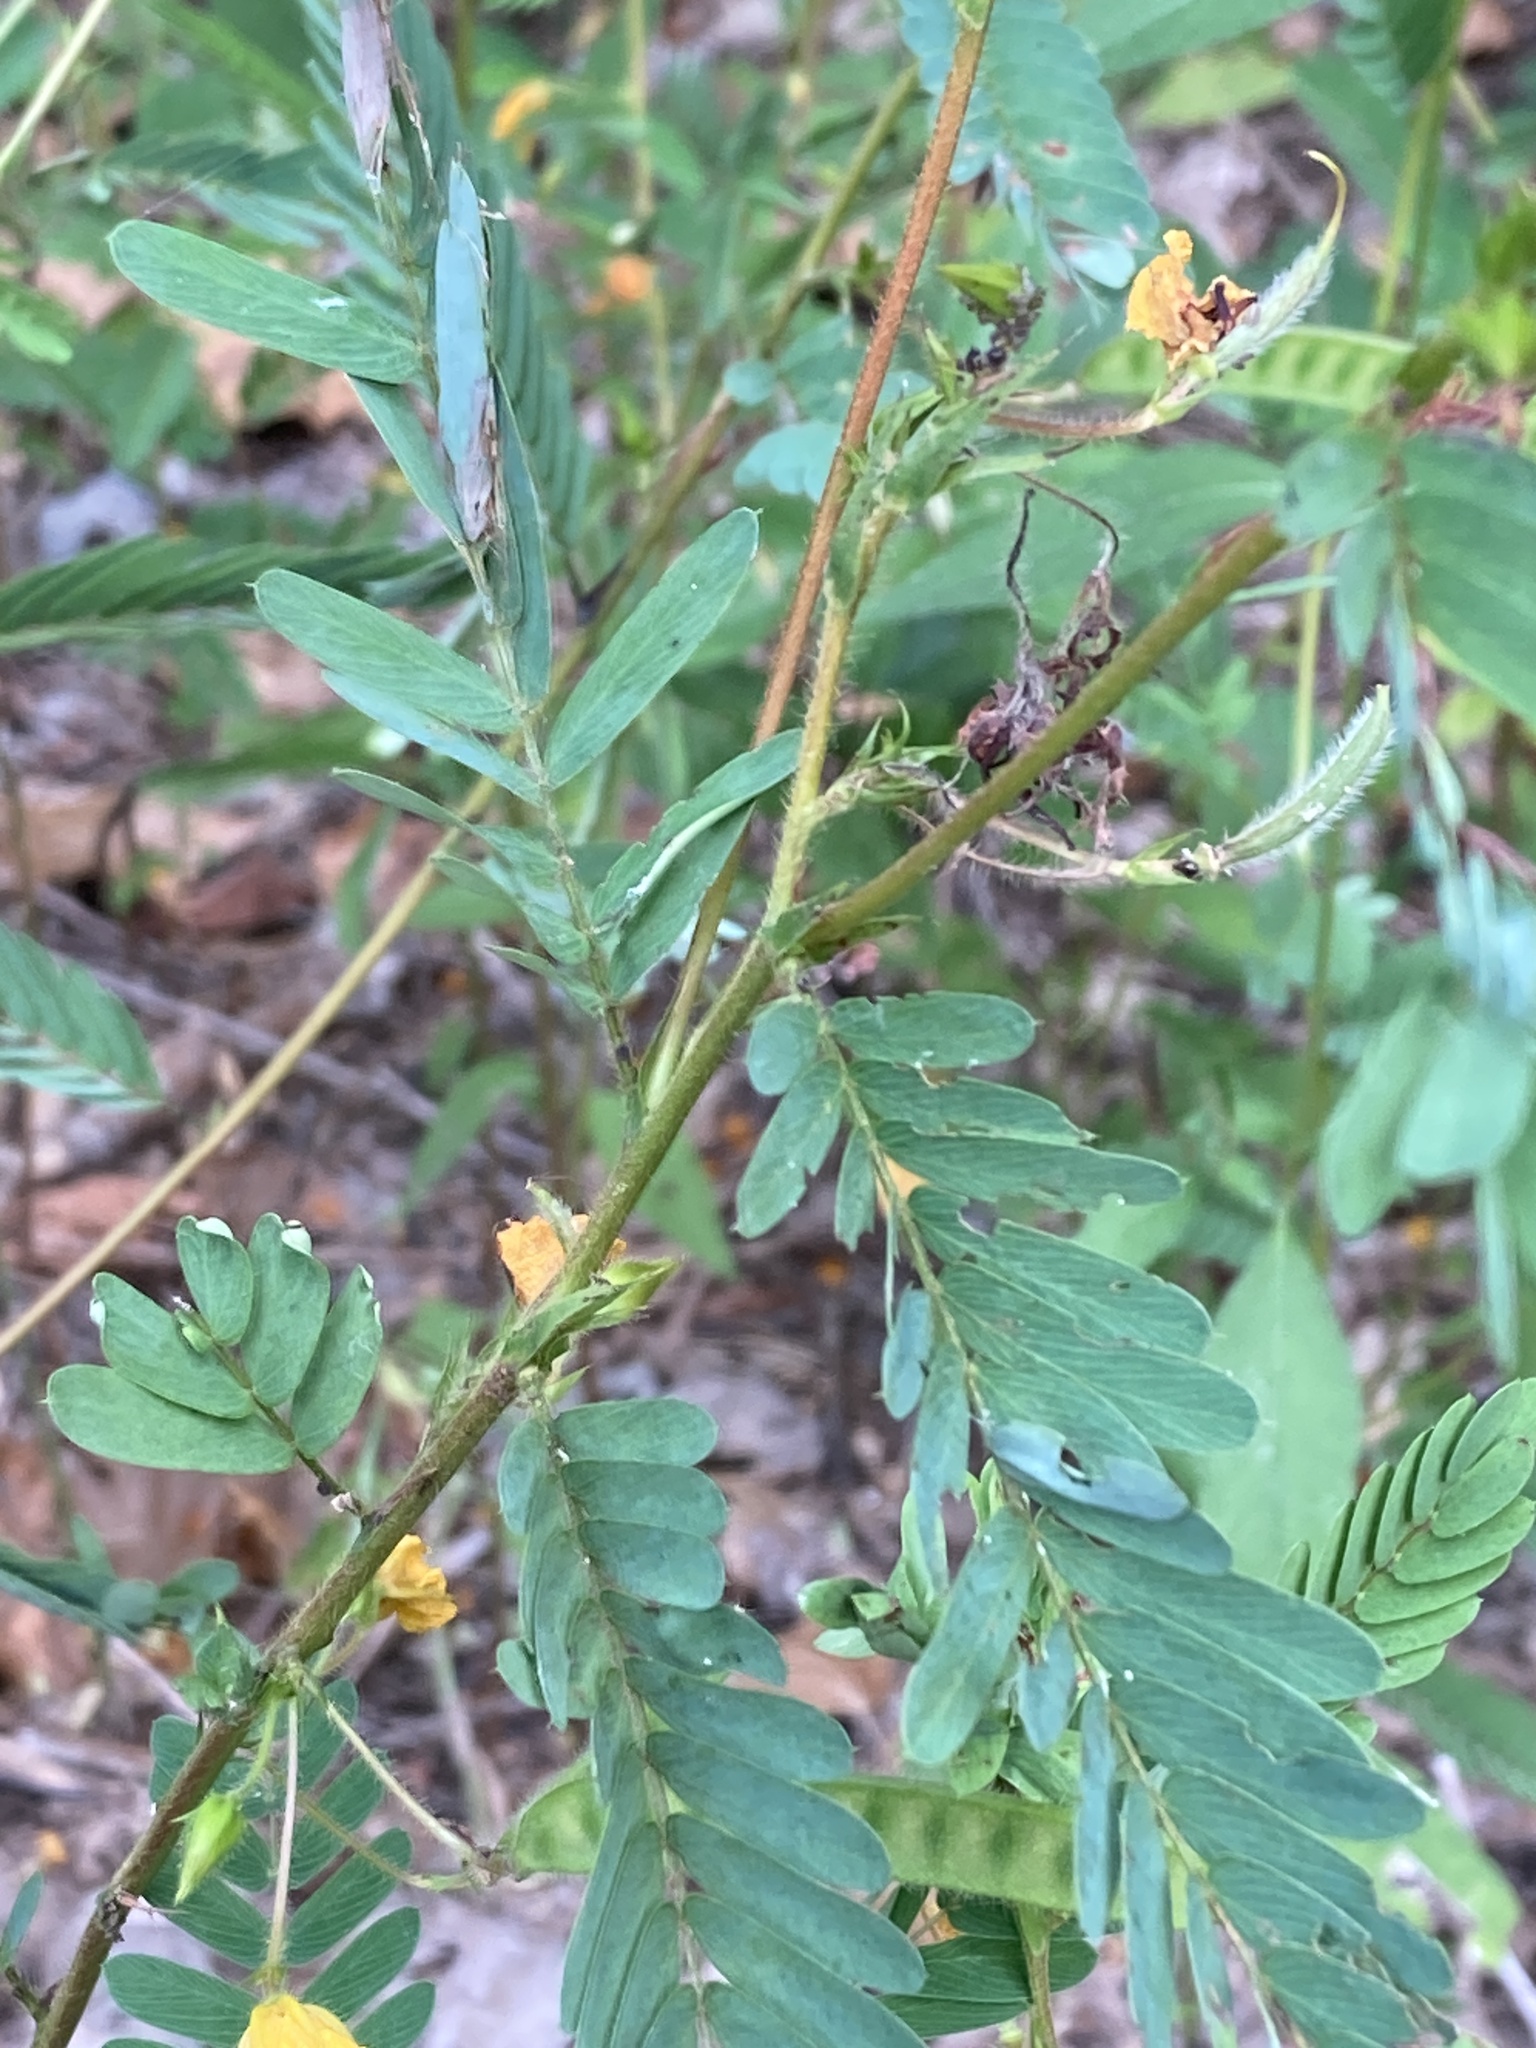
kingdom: Plantae
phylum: Tracheophyta
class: Magnoliopsida
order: Fabales
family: Fabaceae
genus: Chamaecrista
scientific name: Chamaecrista fasciculata
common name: Golden cassia
